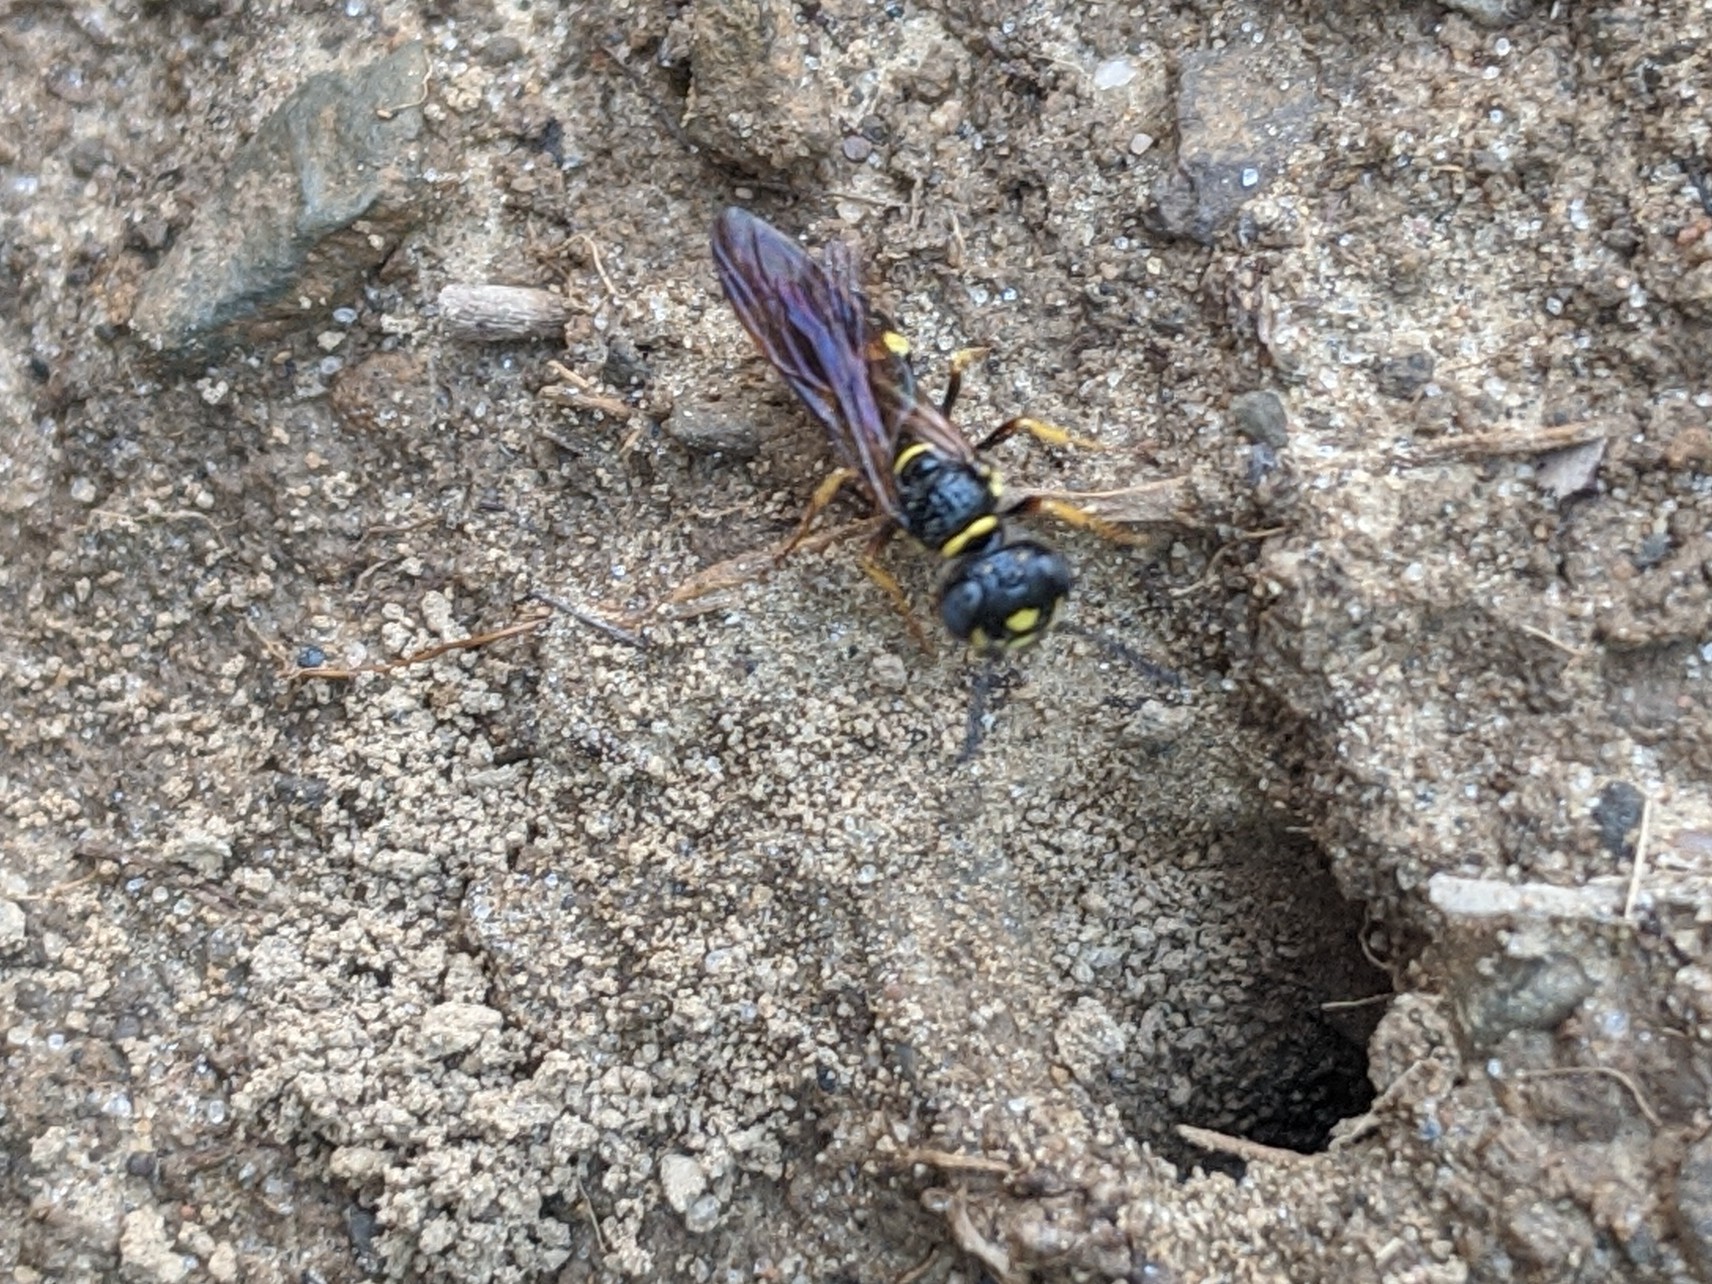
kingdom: Animalia
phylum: Arthropoda
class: Insecta
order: Hymenoptera
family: Crabronidae
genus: Philanthus
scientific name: Philanthus gibbosus
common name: Humped beewolf
